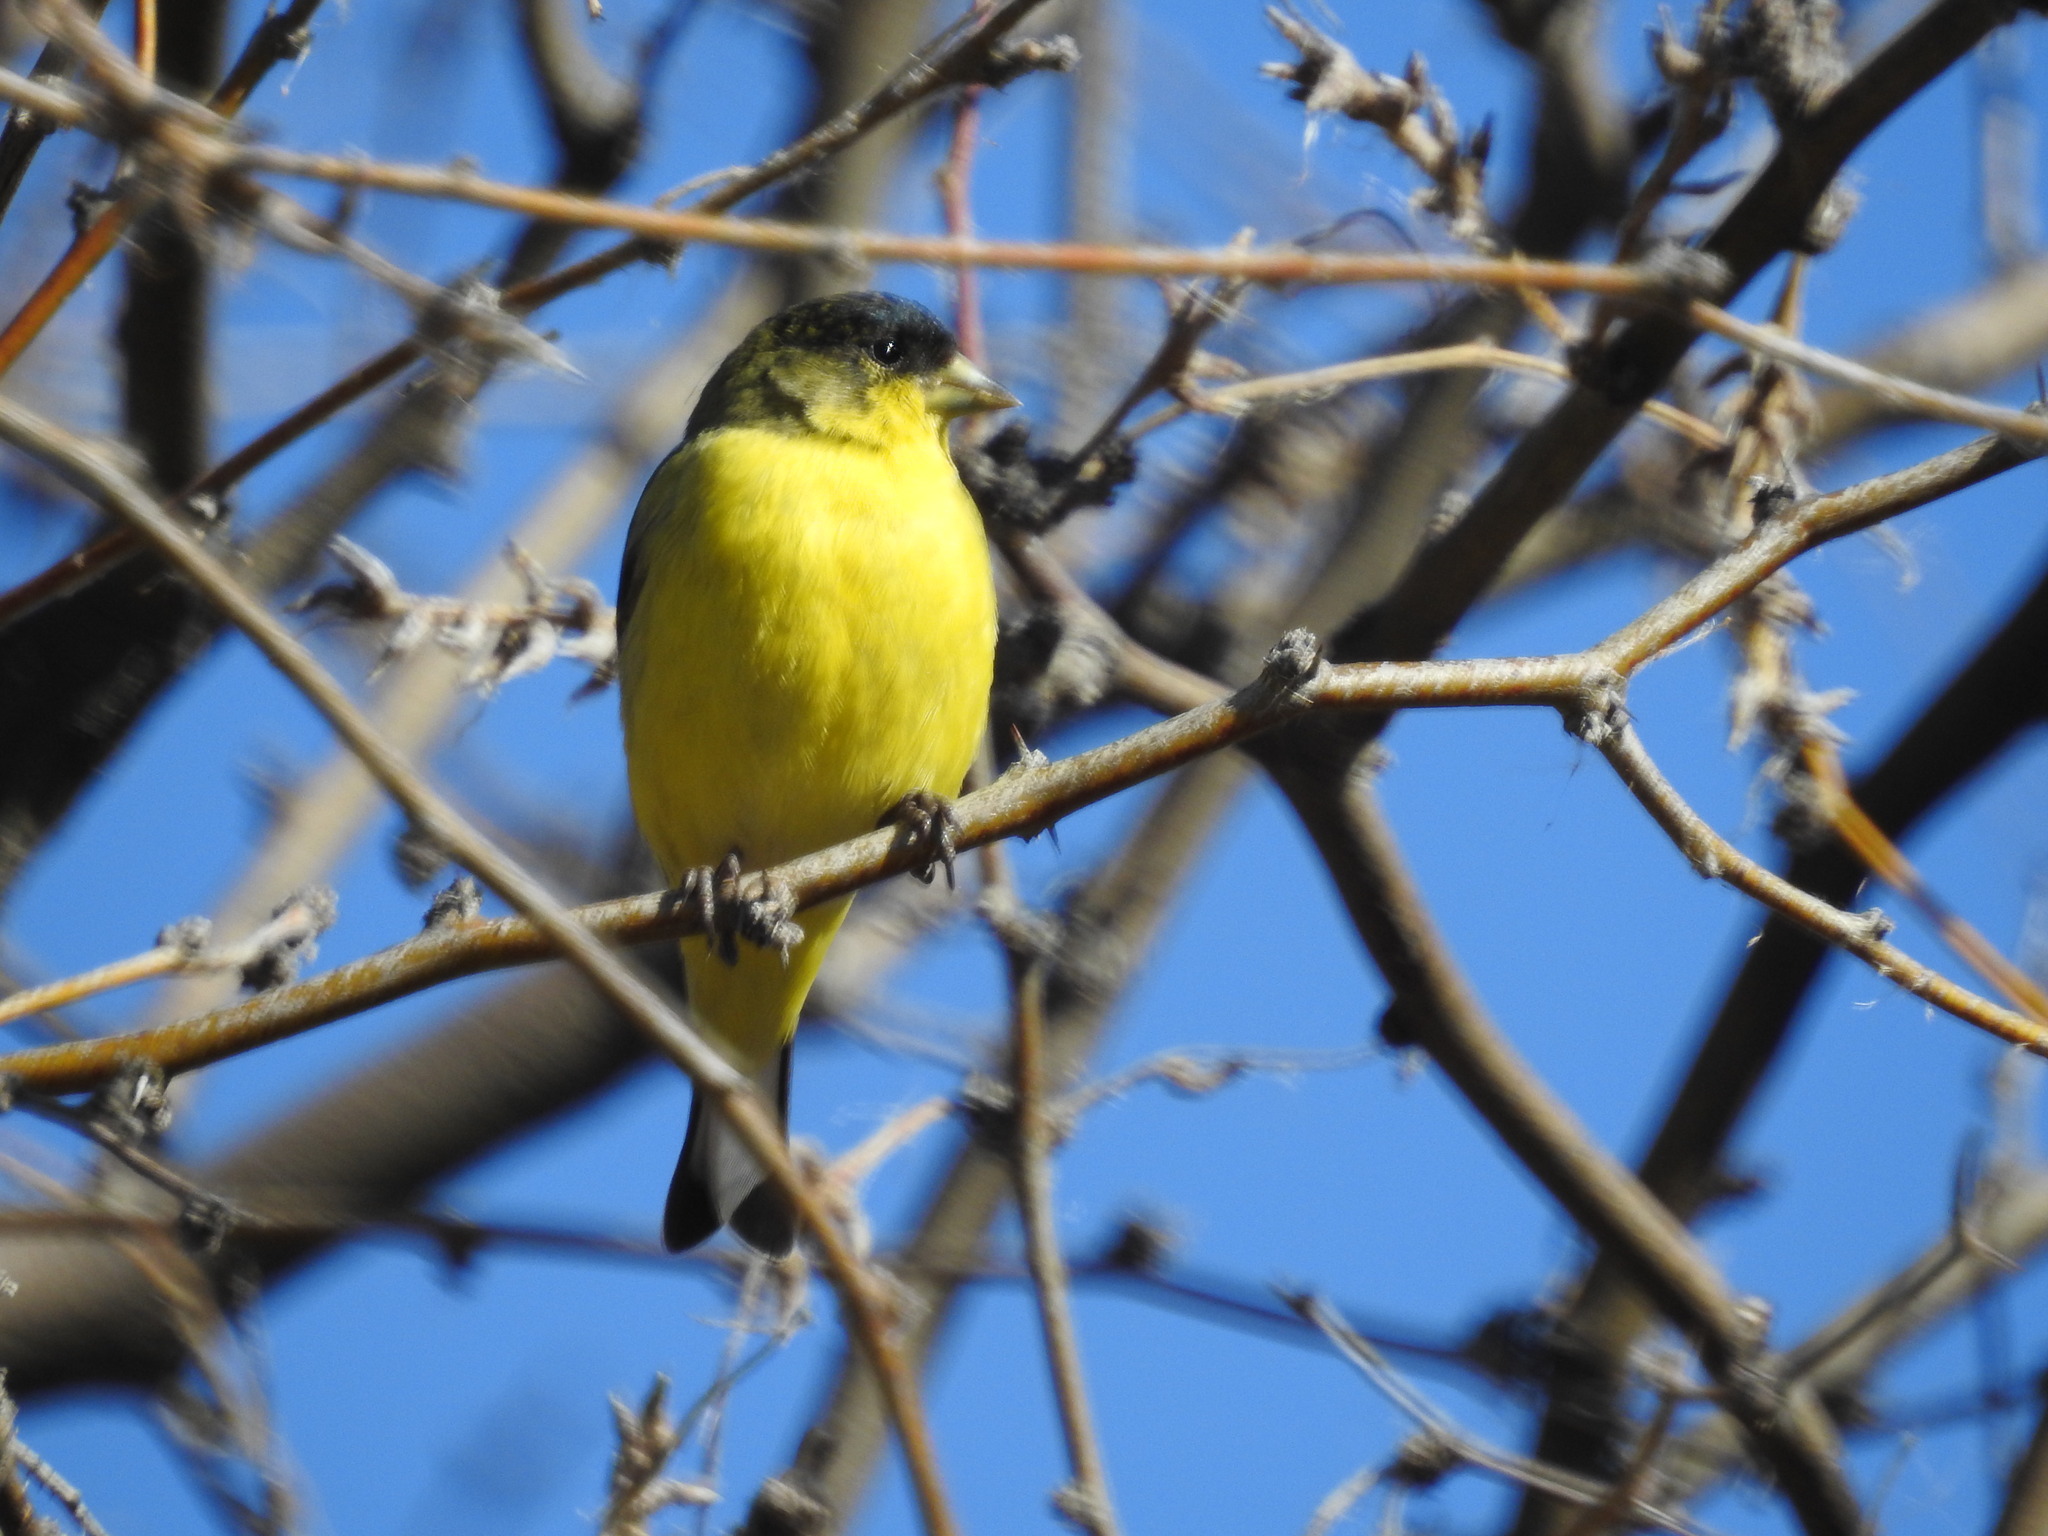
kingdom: Animalia
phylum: Chordata
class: Aves
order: Passeriformes
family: Fringillidae
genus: Spinus
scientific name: Spinus psaltria
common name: Lesser goldfinch
